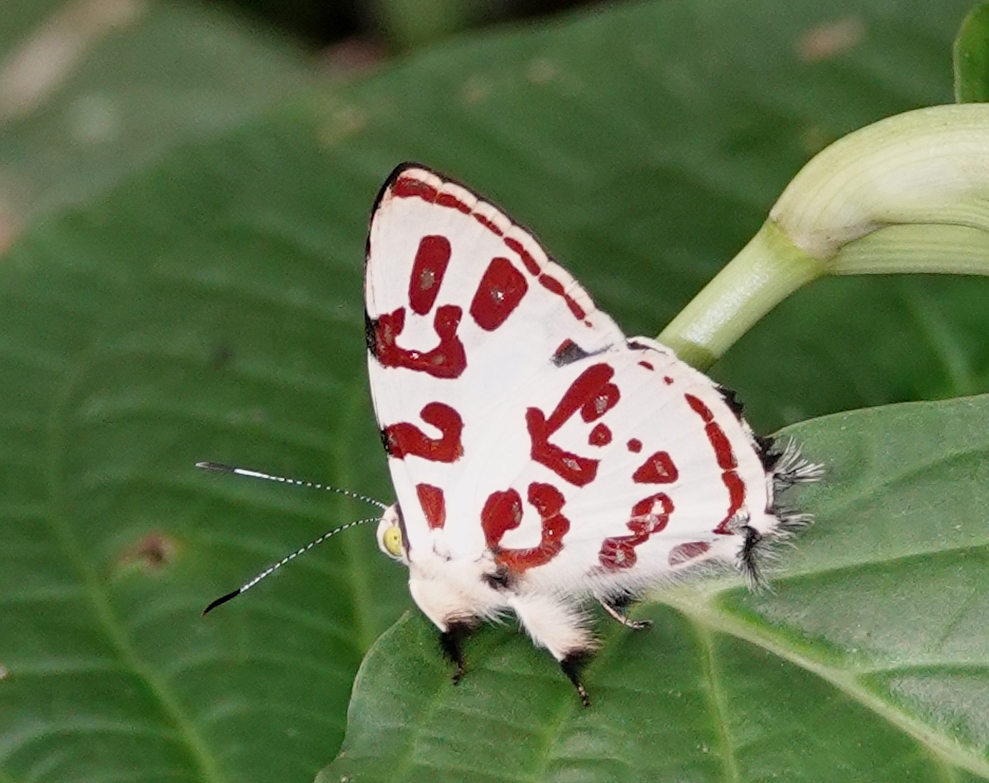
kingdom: Animalia
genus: Anteros
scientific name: Anteros kupris
